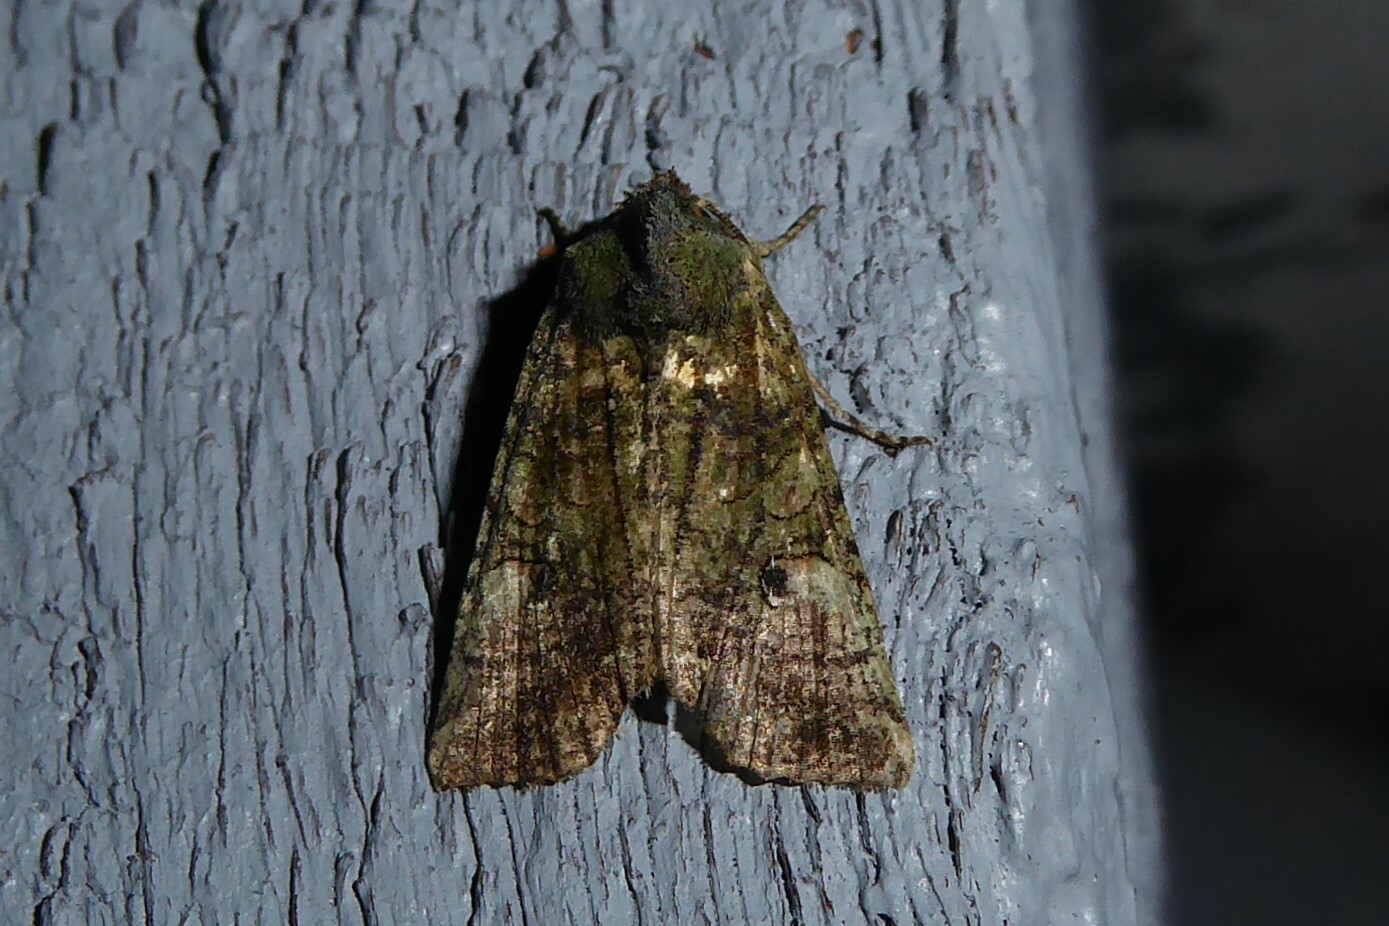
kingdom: Animalia
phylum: Arthropoda
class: Insecta
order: Lepidoptera
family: Noctuidae
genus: Meterana
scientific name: Meterana levis
